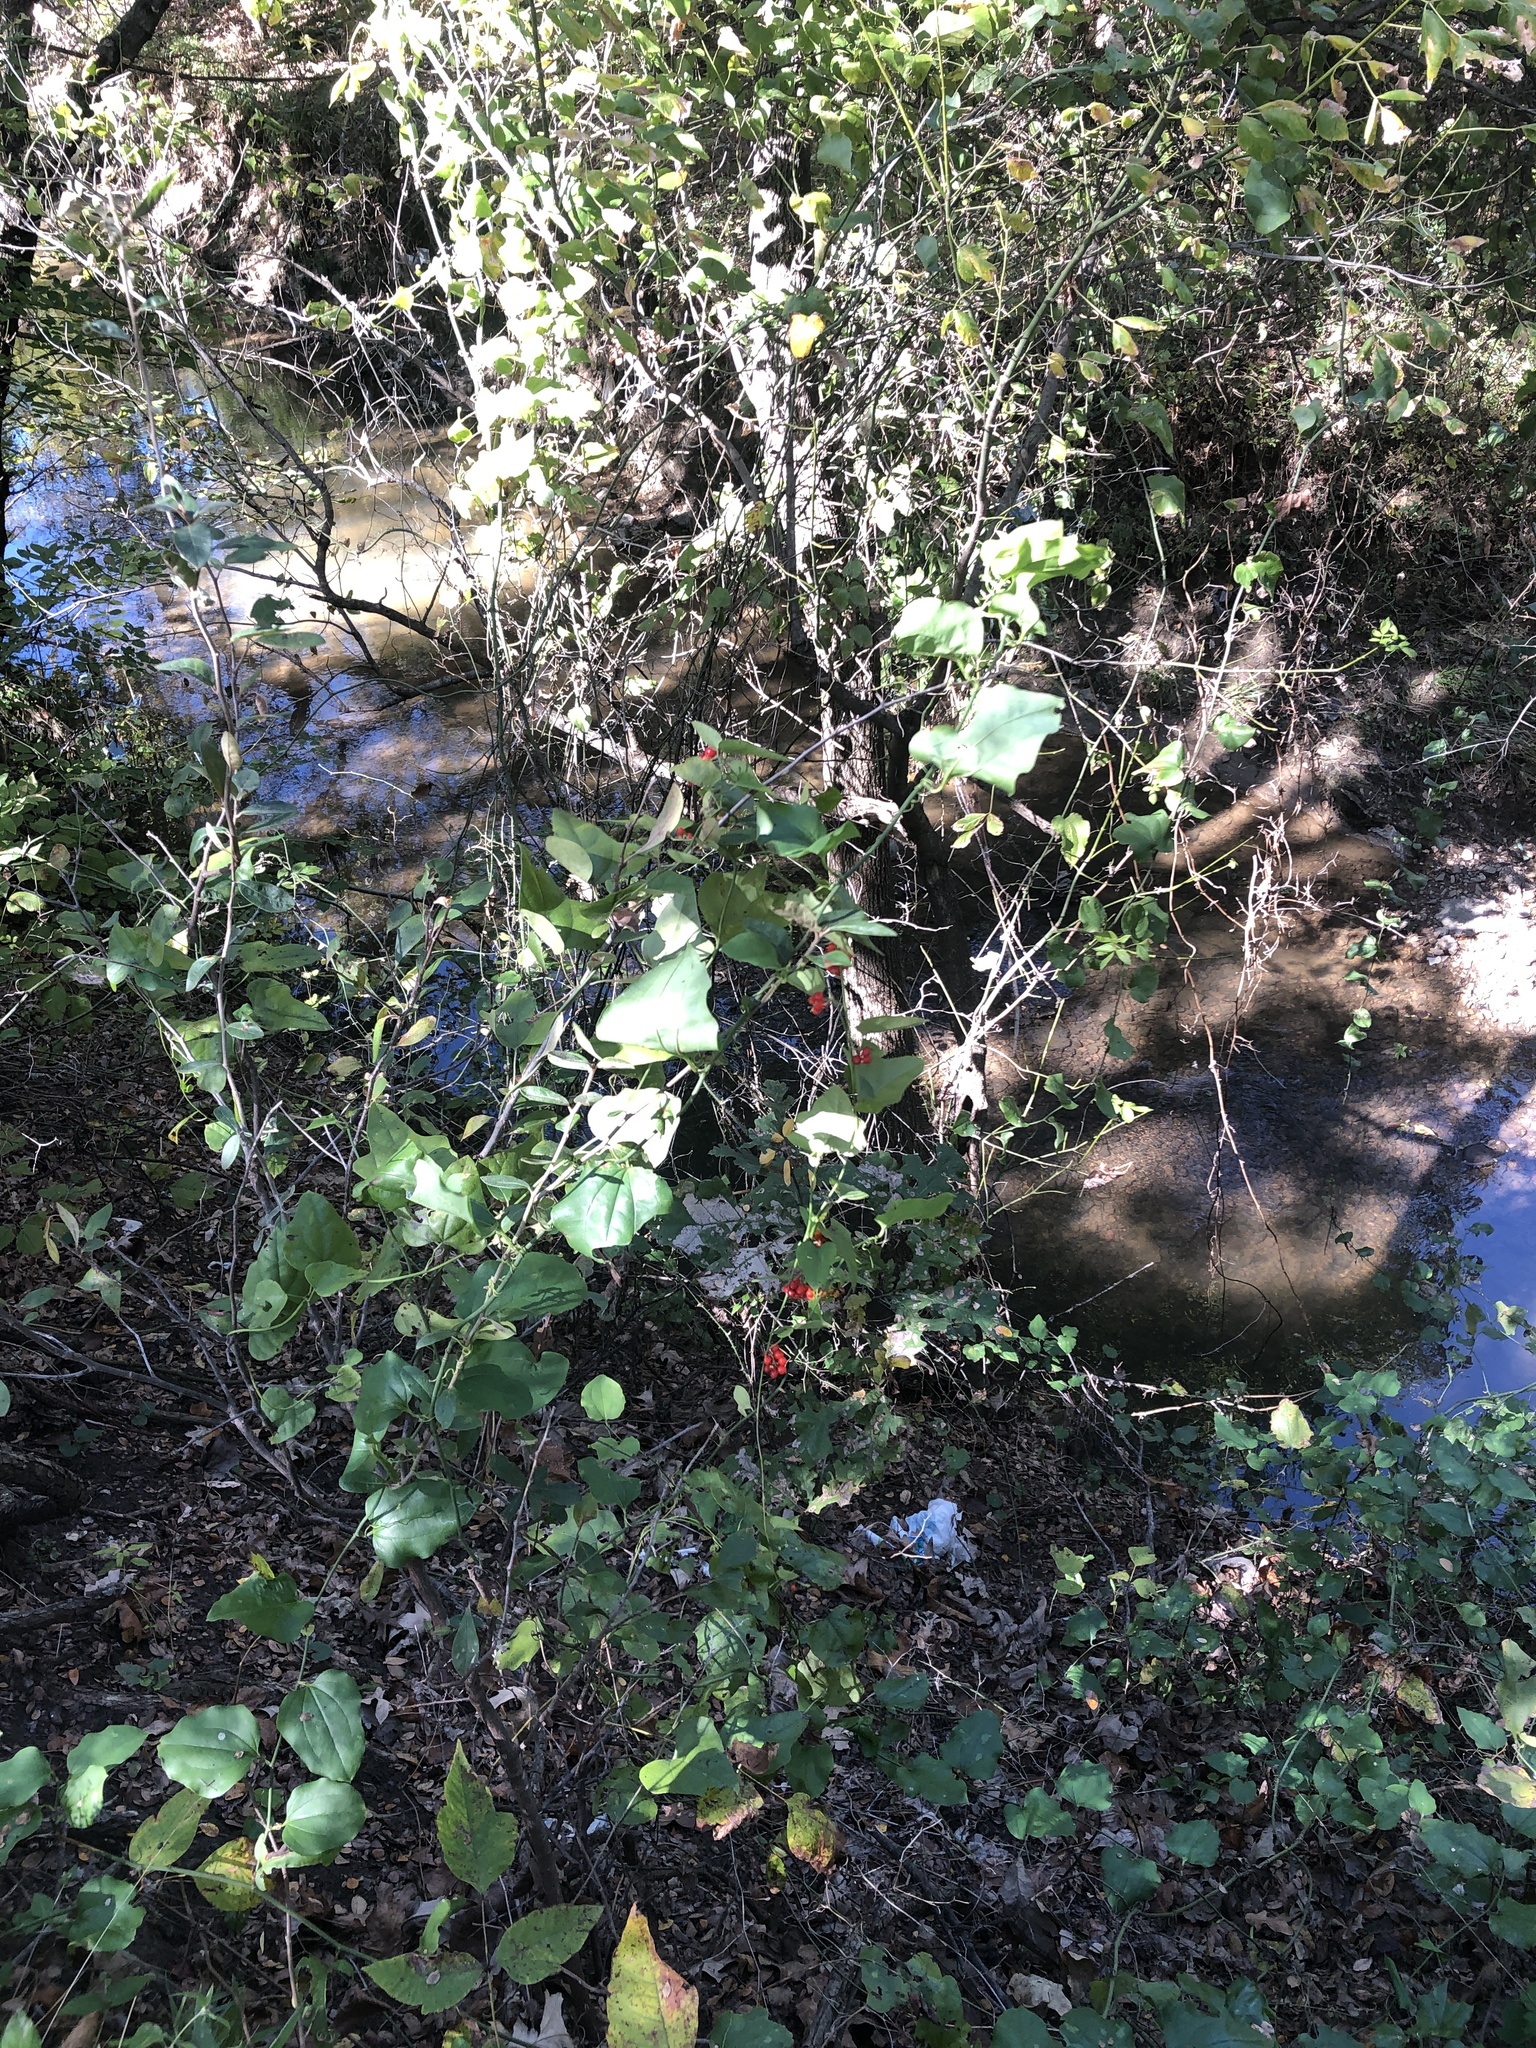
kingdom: Plantae
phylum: Tracheophyta
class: Magnoliopsida
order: Ranunculales
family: Menispermaceae
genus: Cocculus
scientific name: Cocculus carolinus
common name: Carolina moonseed
